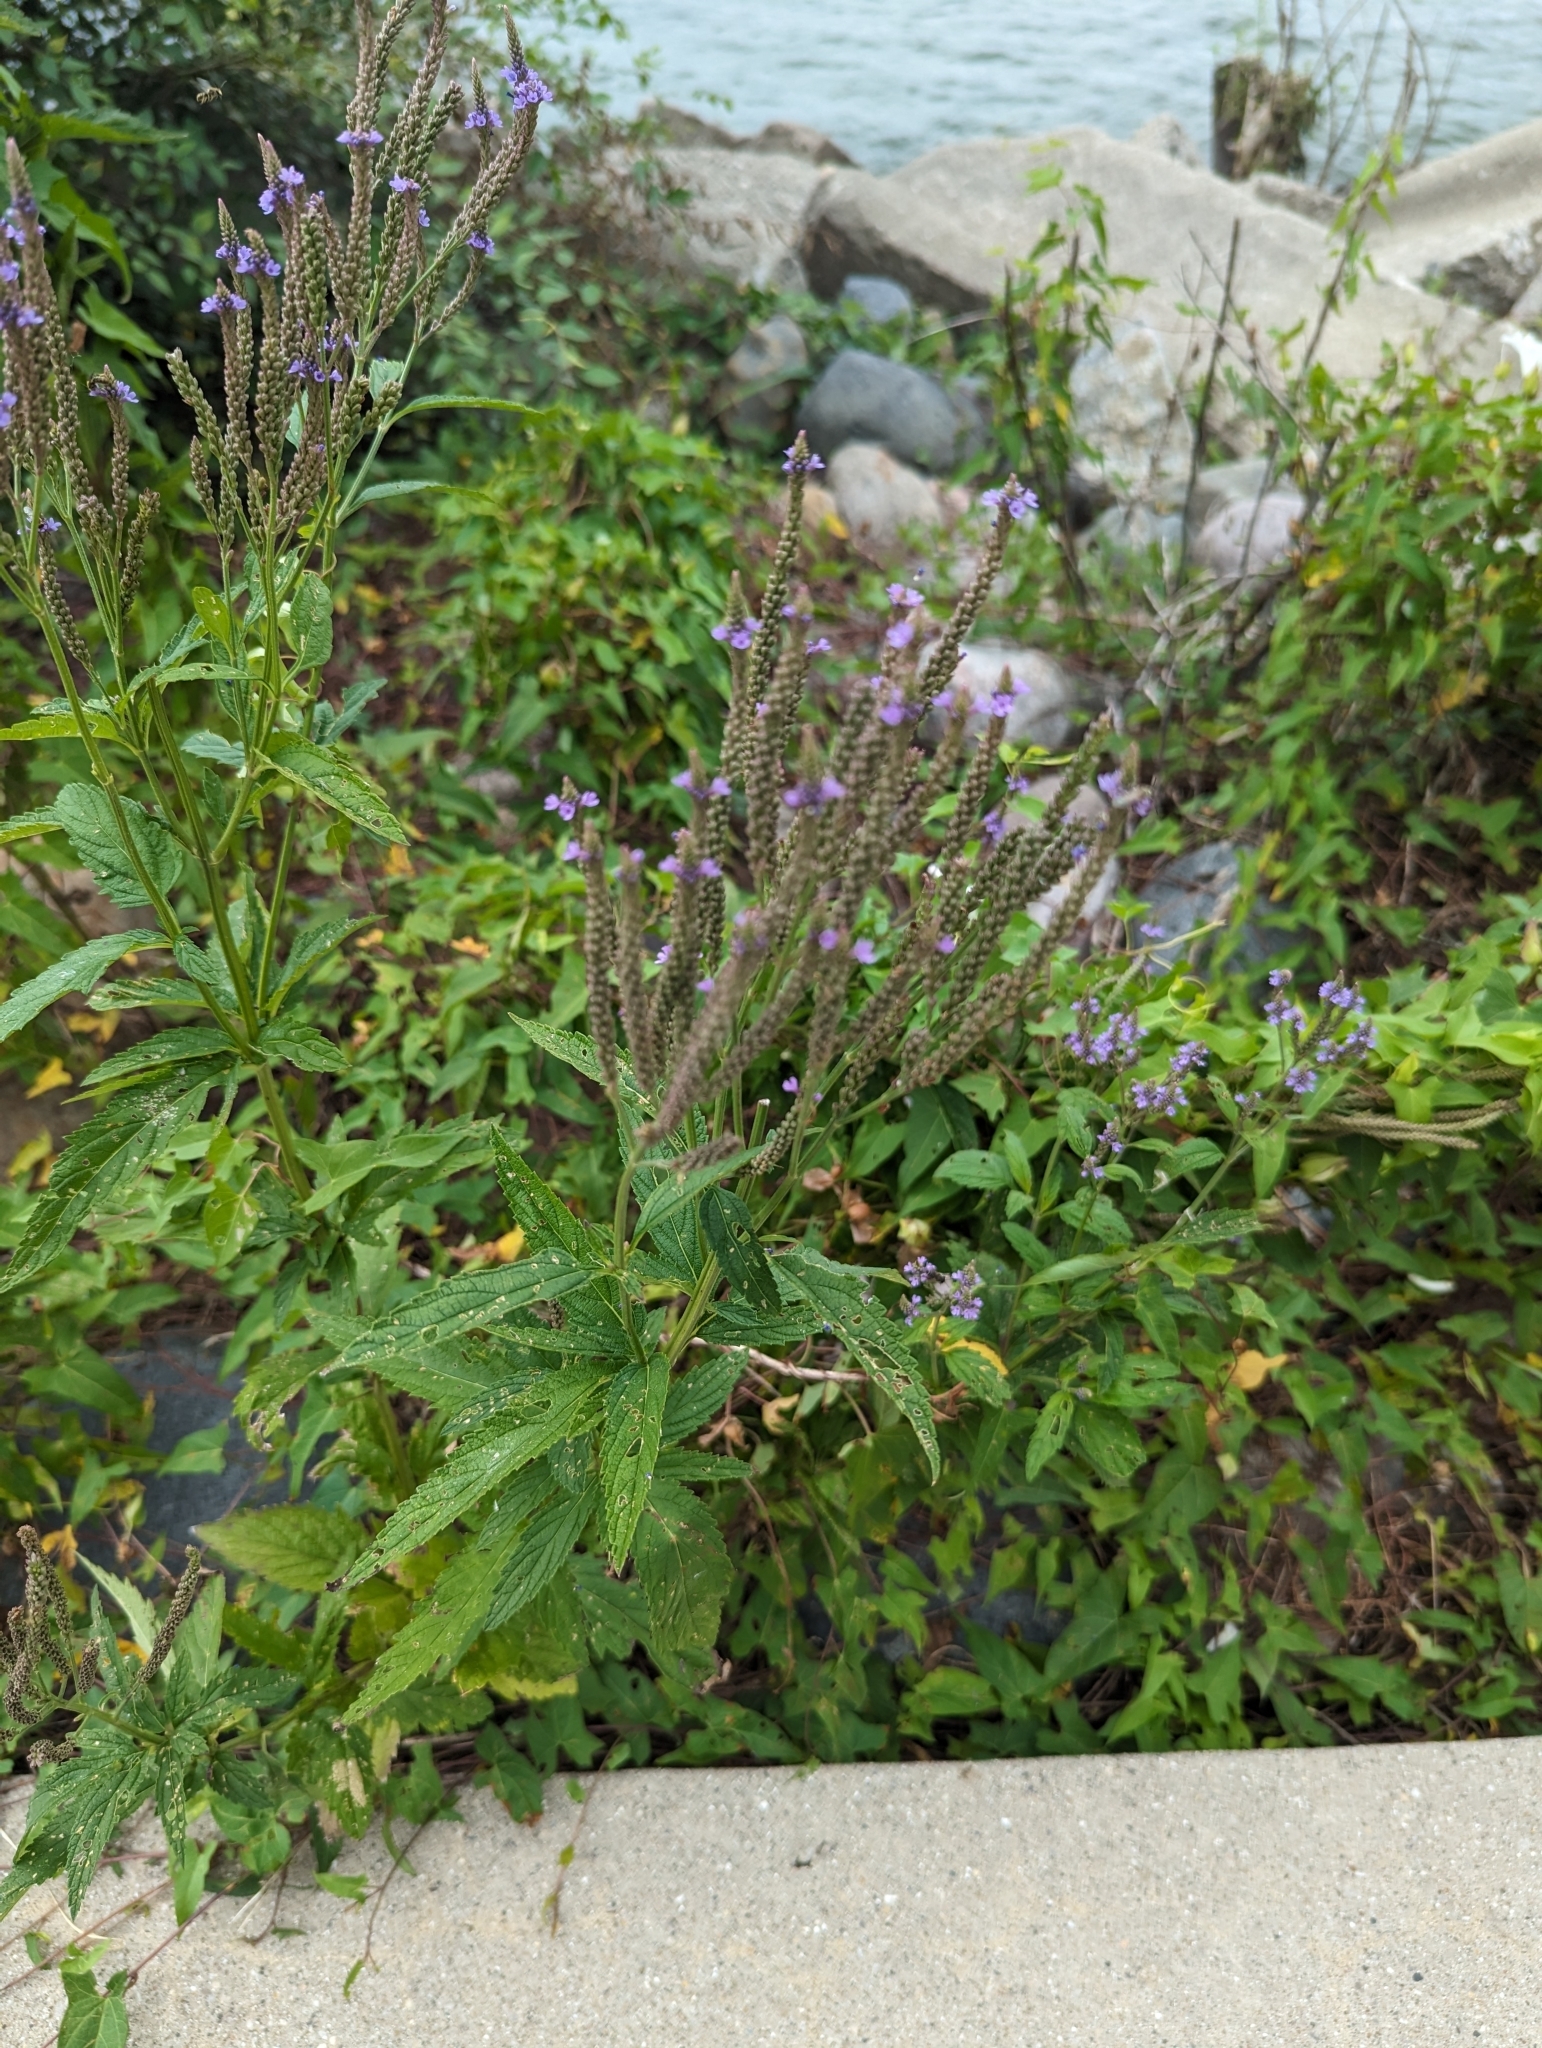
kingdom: Plantae
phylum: Tracheophyta
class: Magnoliopsida
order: Lamiales
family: Verbenaceae
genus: Verbena
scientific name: Verbena hastata
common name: American blue vervain
